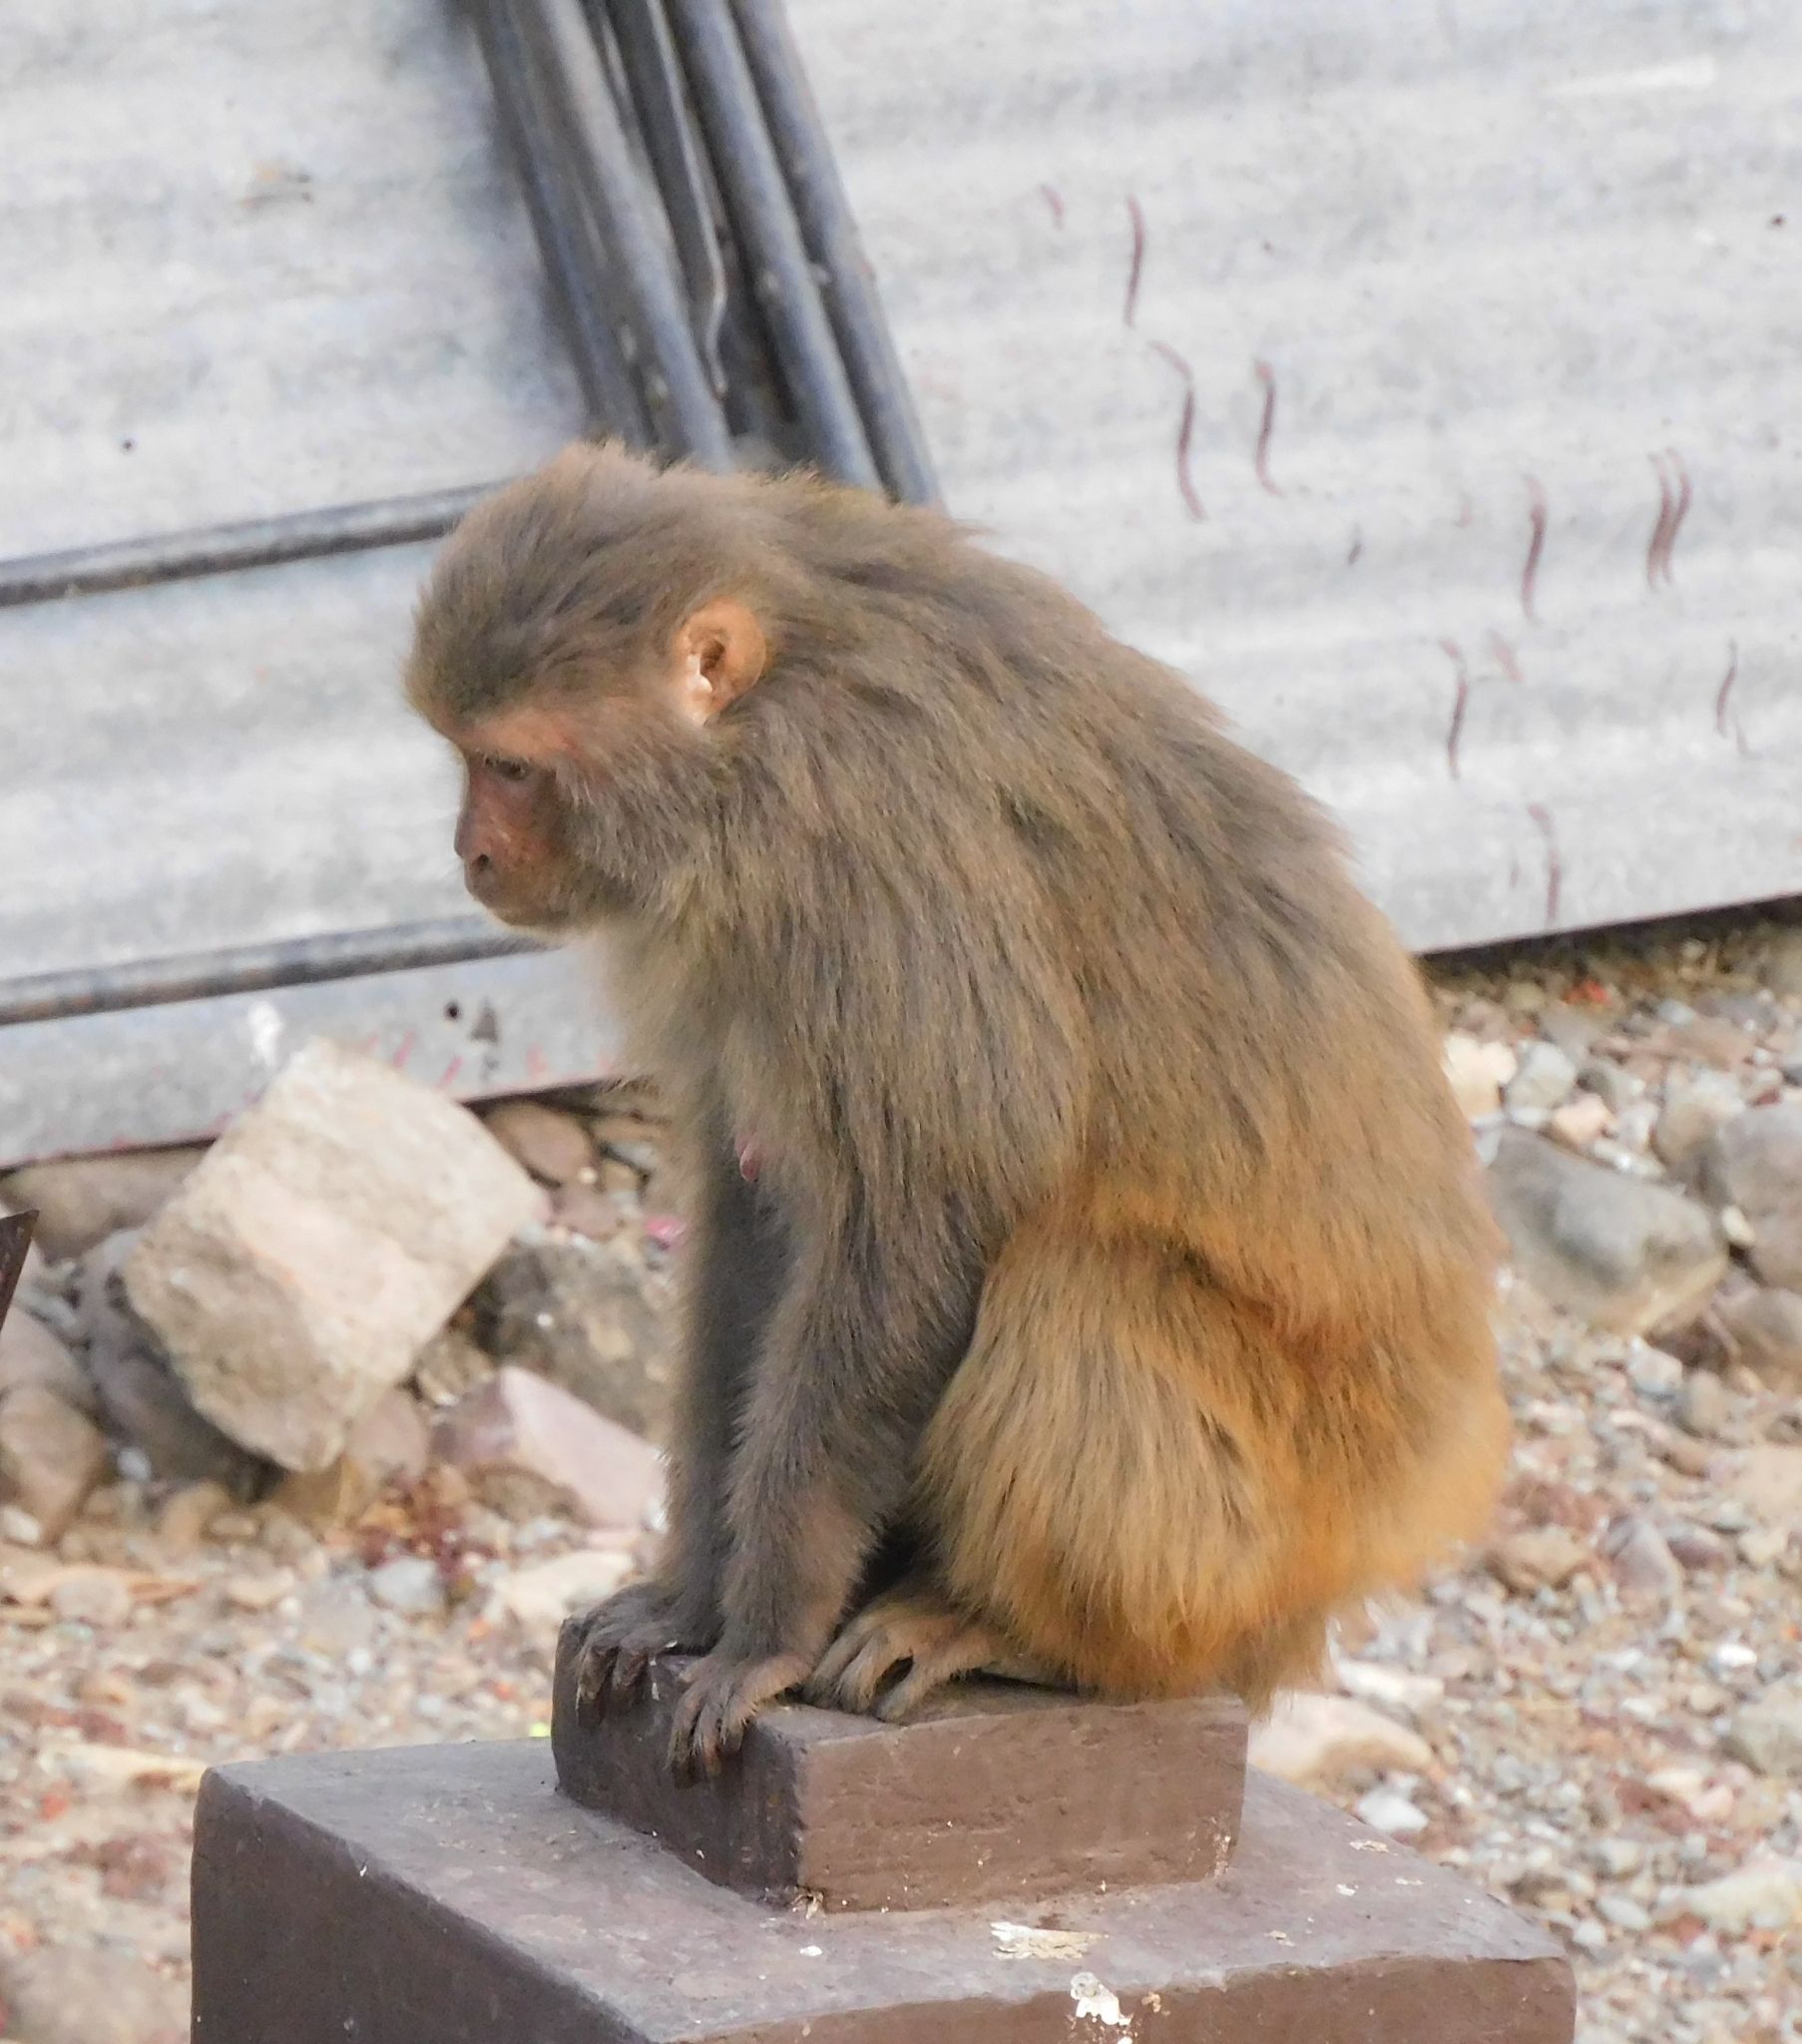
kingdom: Animalia
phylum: Chordata
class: Mammalia
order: Primates
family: Cercopithecidae
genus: Macaca
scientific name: Macaca mulatta
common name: Rhesus monkey
